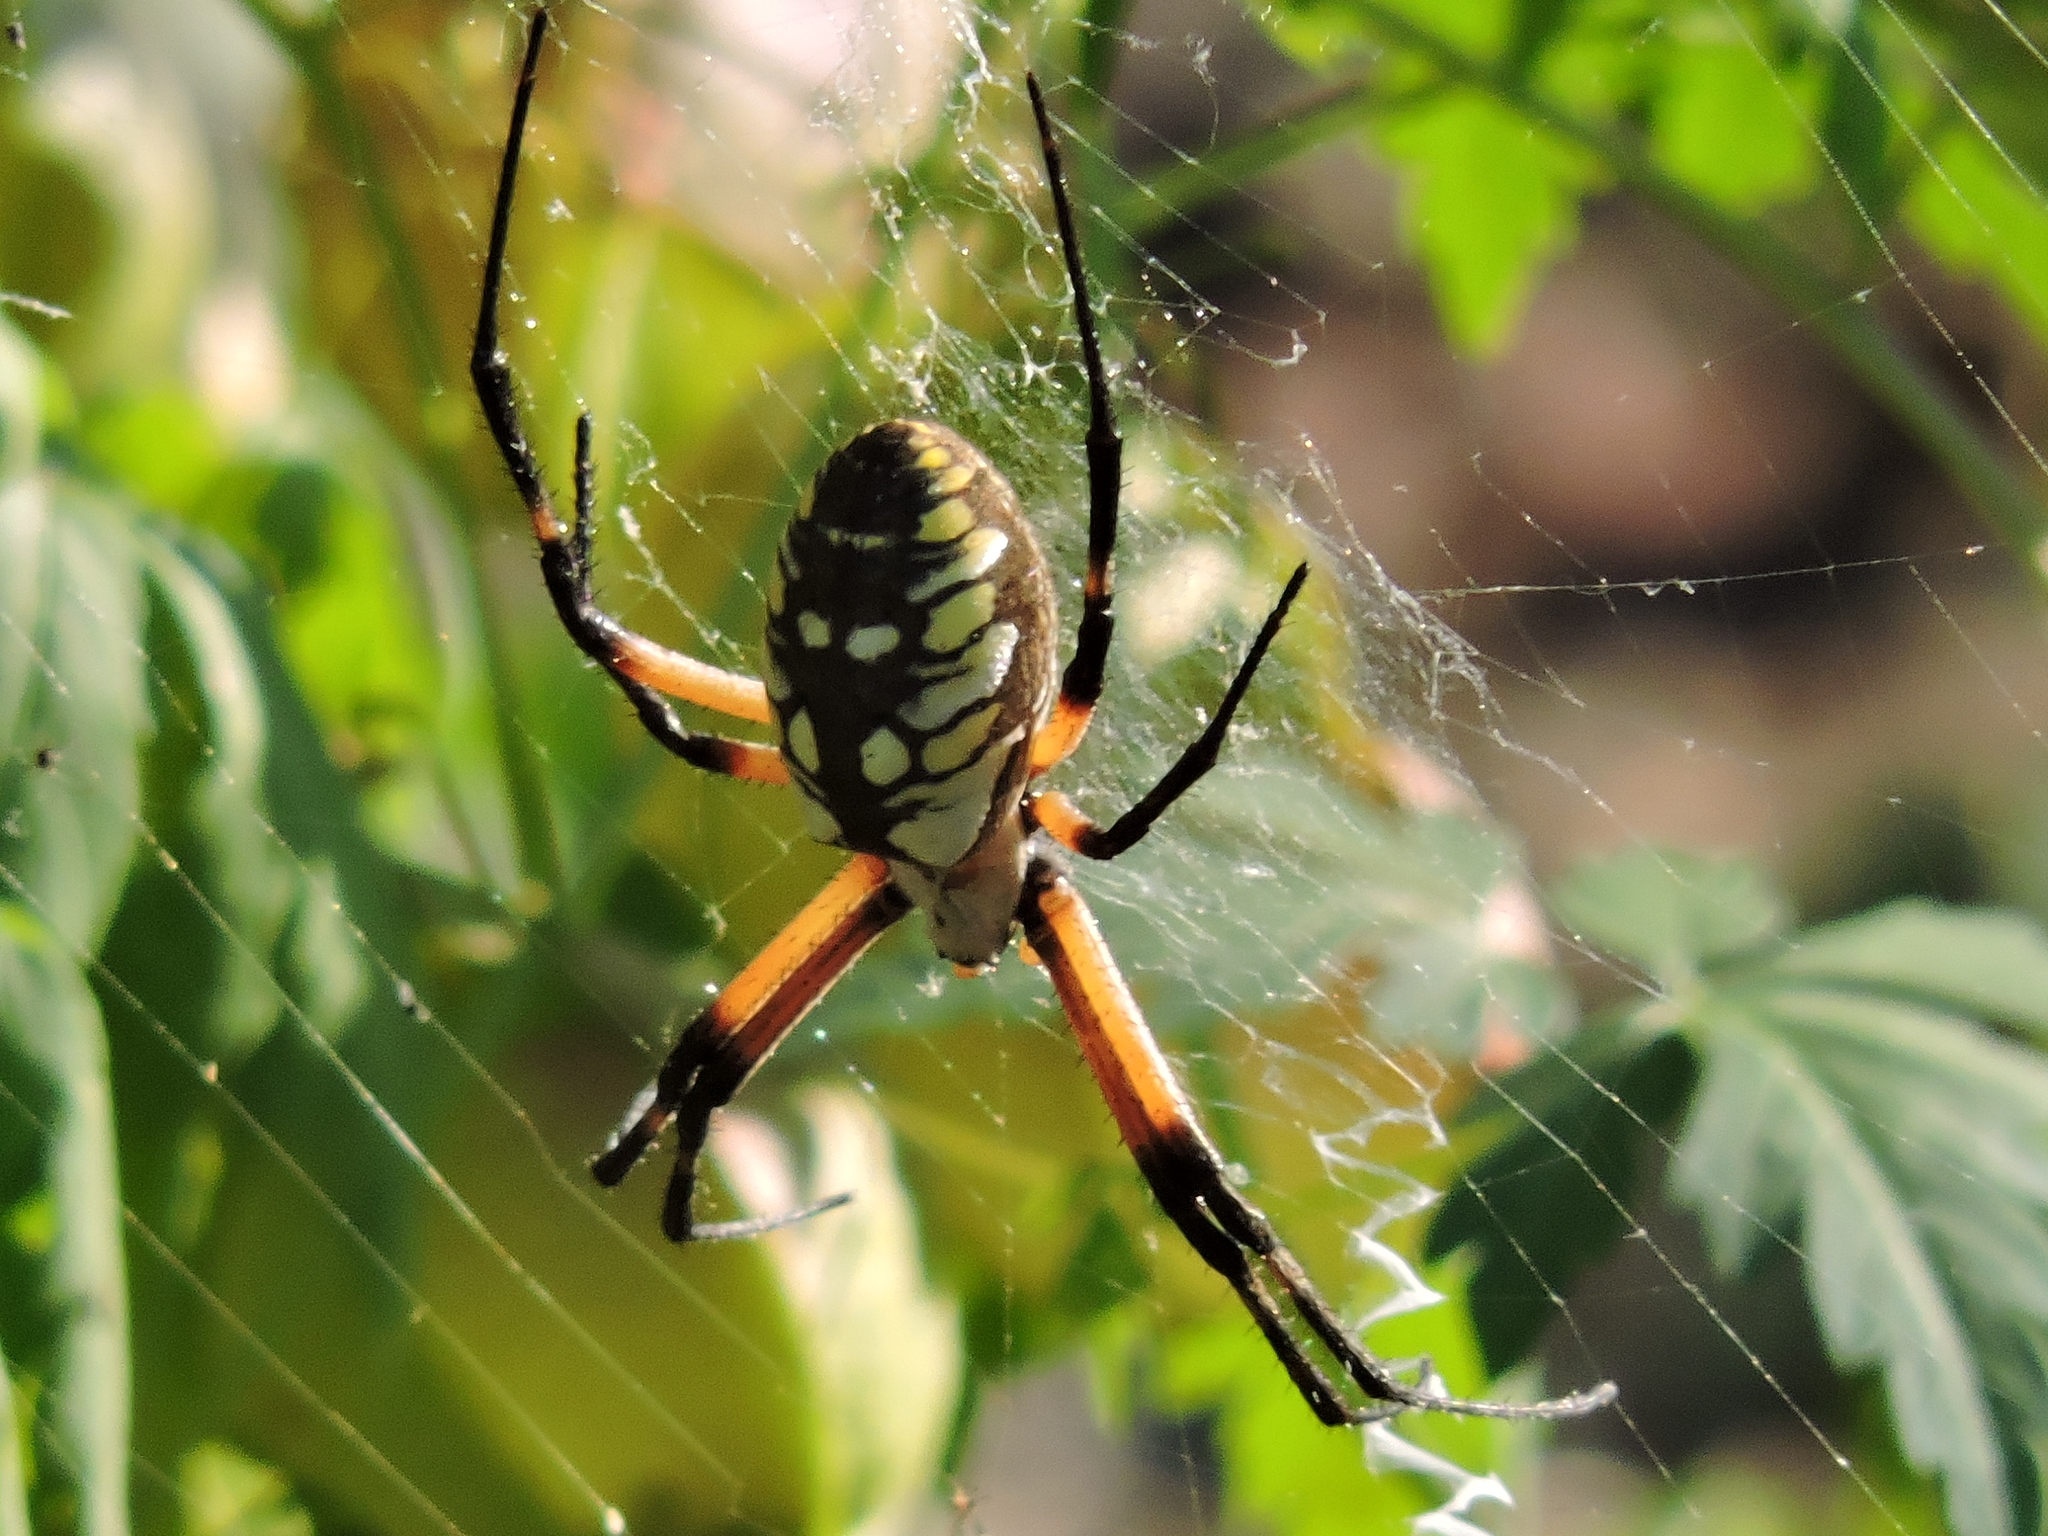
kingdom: Animalia
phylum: Arthropoda
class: Arachnida
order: Araneae
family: Araneidae
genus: Argiope
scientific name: Argiope aurantia
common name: Orb weavers
